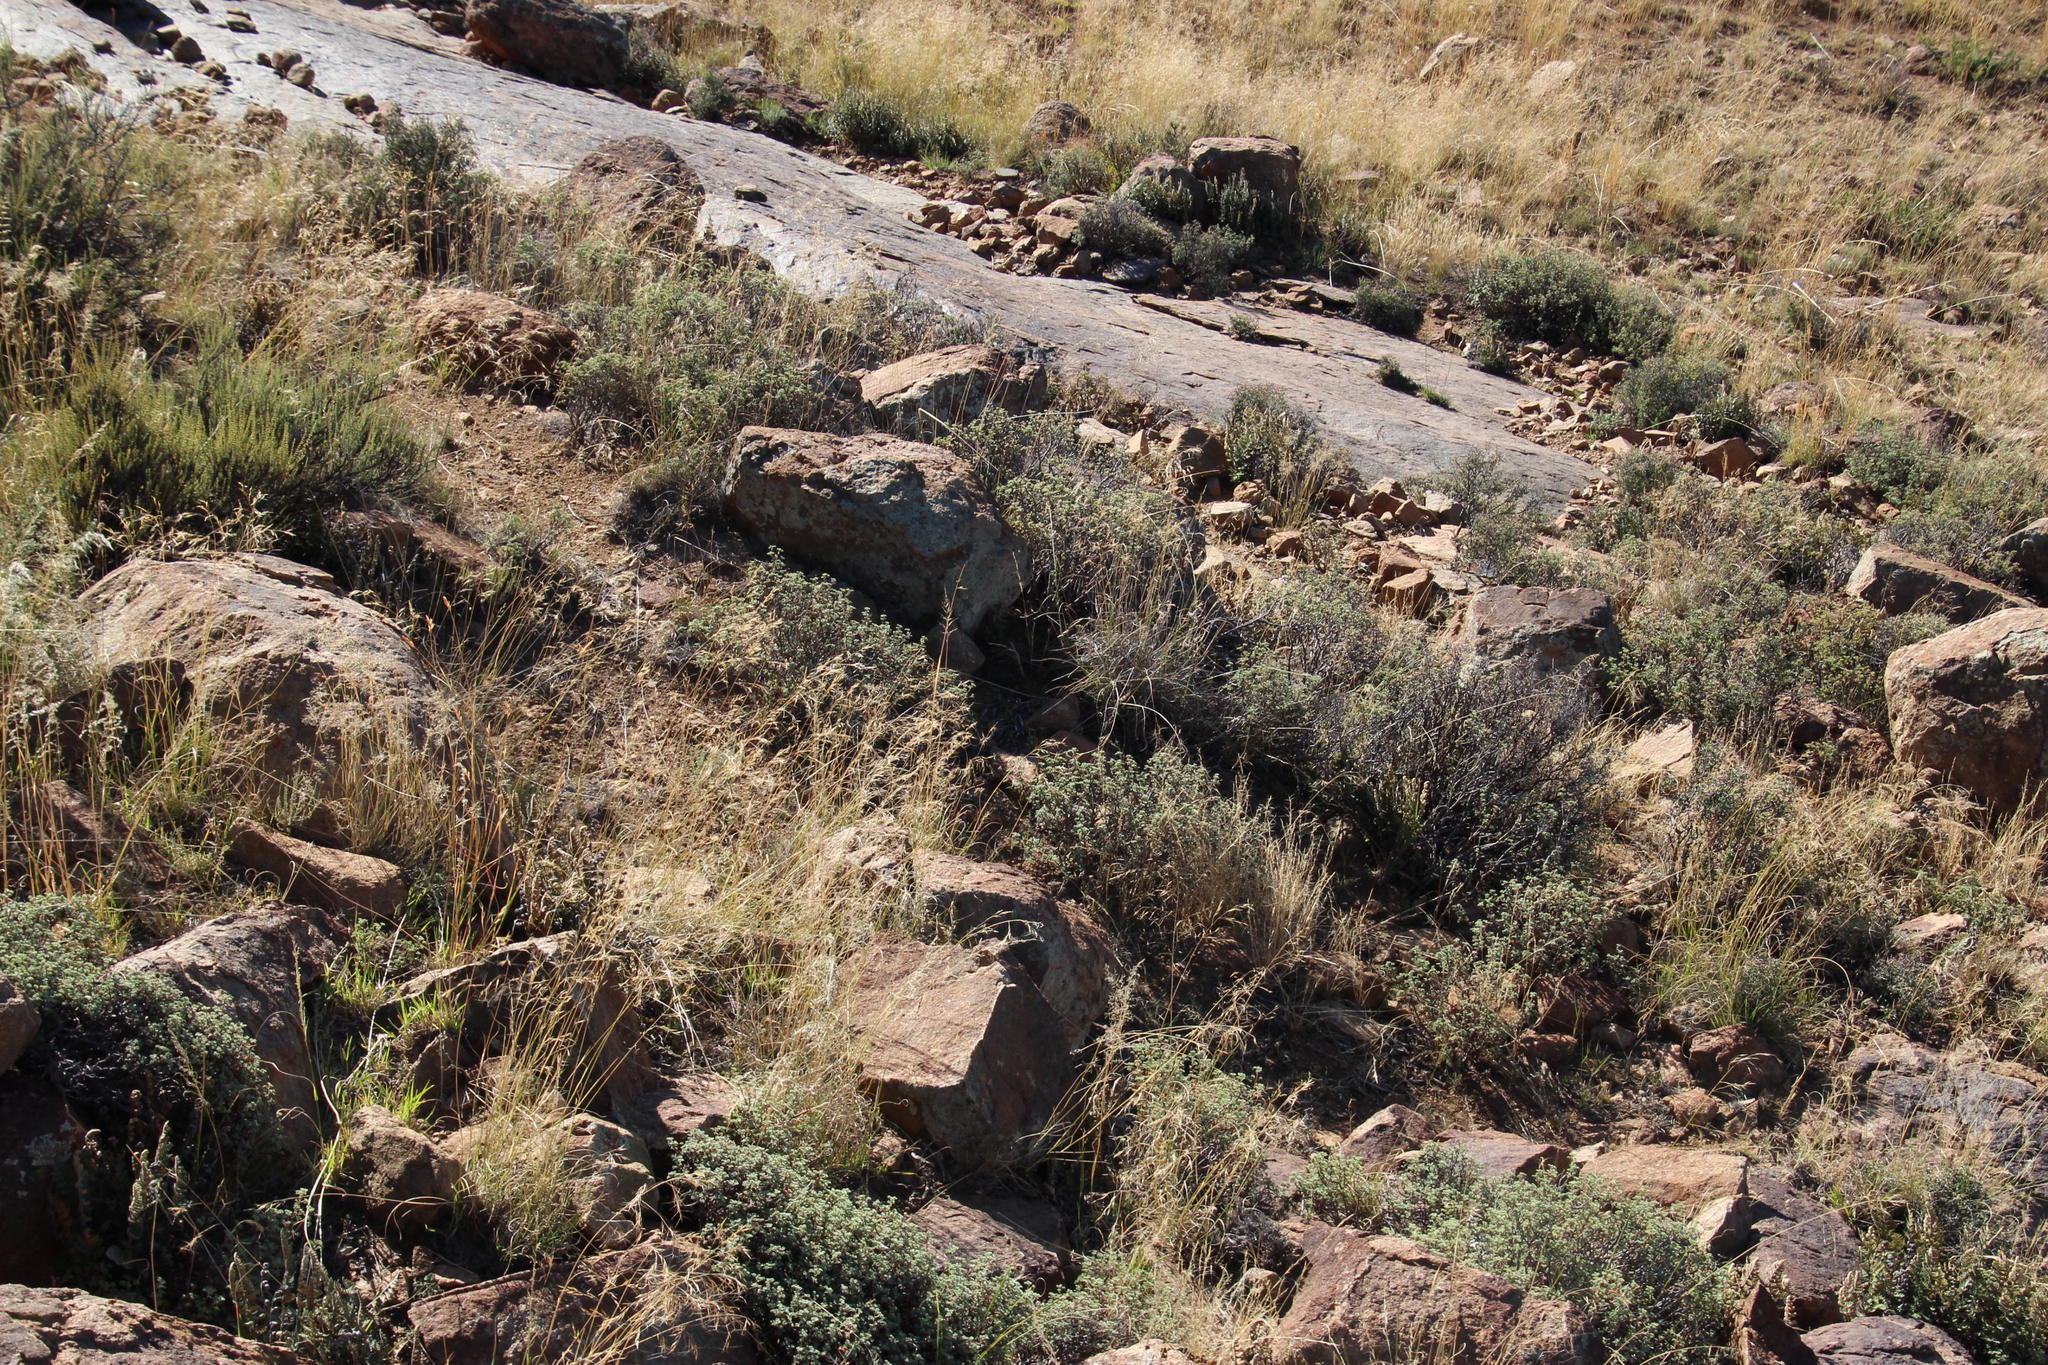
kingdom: Plantae
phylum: Tracheophyta
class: Magnoliopsida
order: Geraniales
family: Geraniaceae
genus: Pelargonium
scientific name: Pelargonium abrotanifolium
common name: Southernwood geranium
